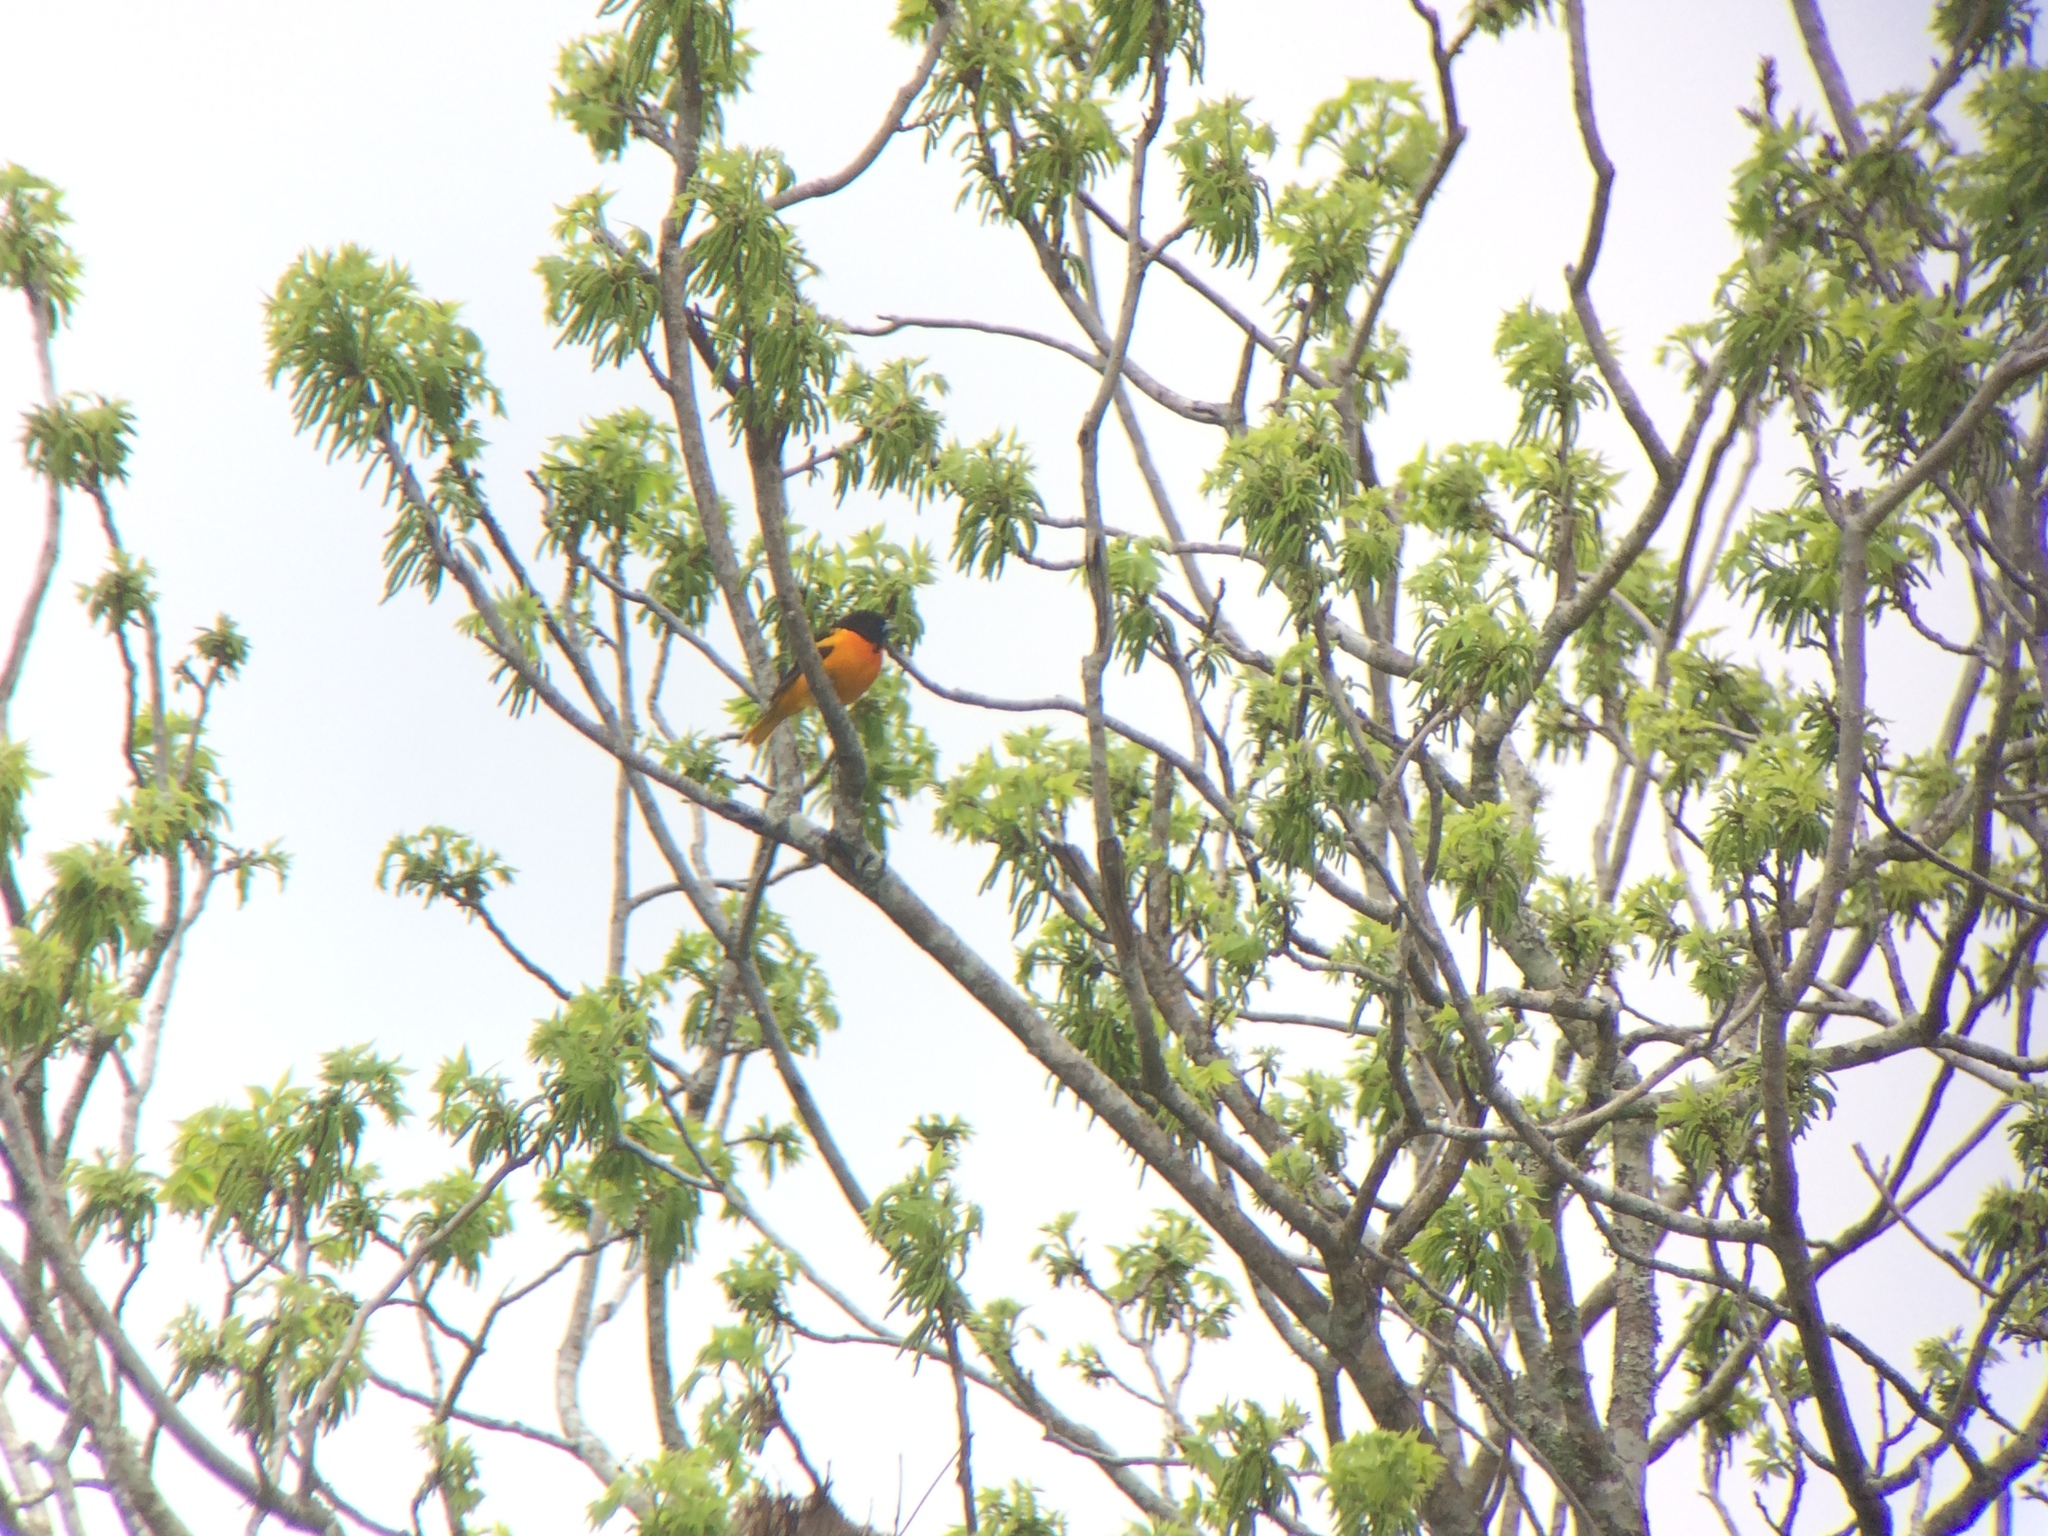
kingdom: Animalia
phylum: Chordata
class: Aves
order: Passeriformes
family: Icteridae
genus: Icterus
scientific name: Icterus galbula
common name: Baltimore oriole
